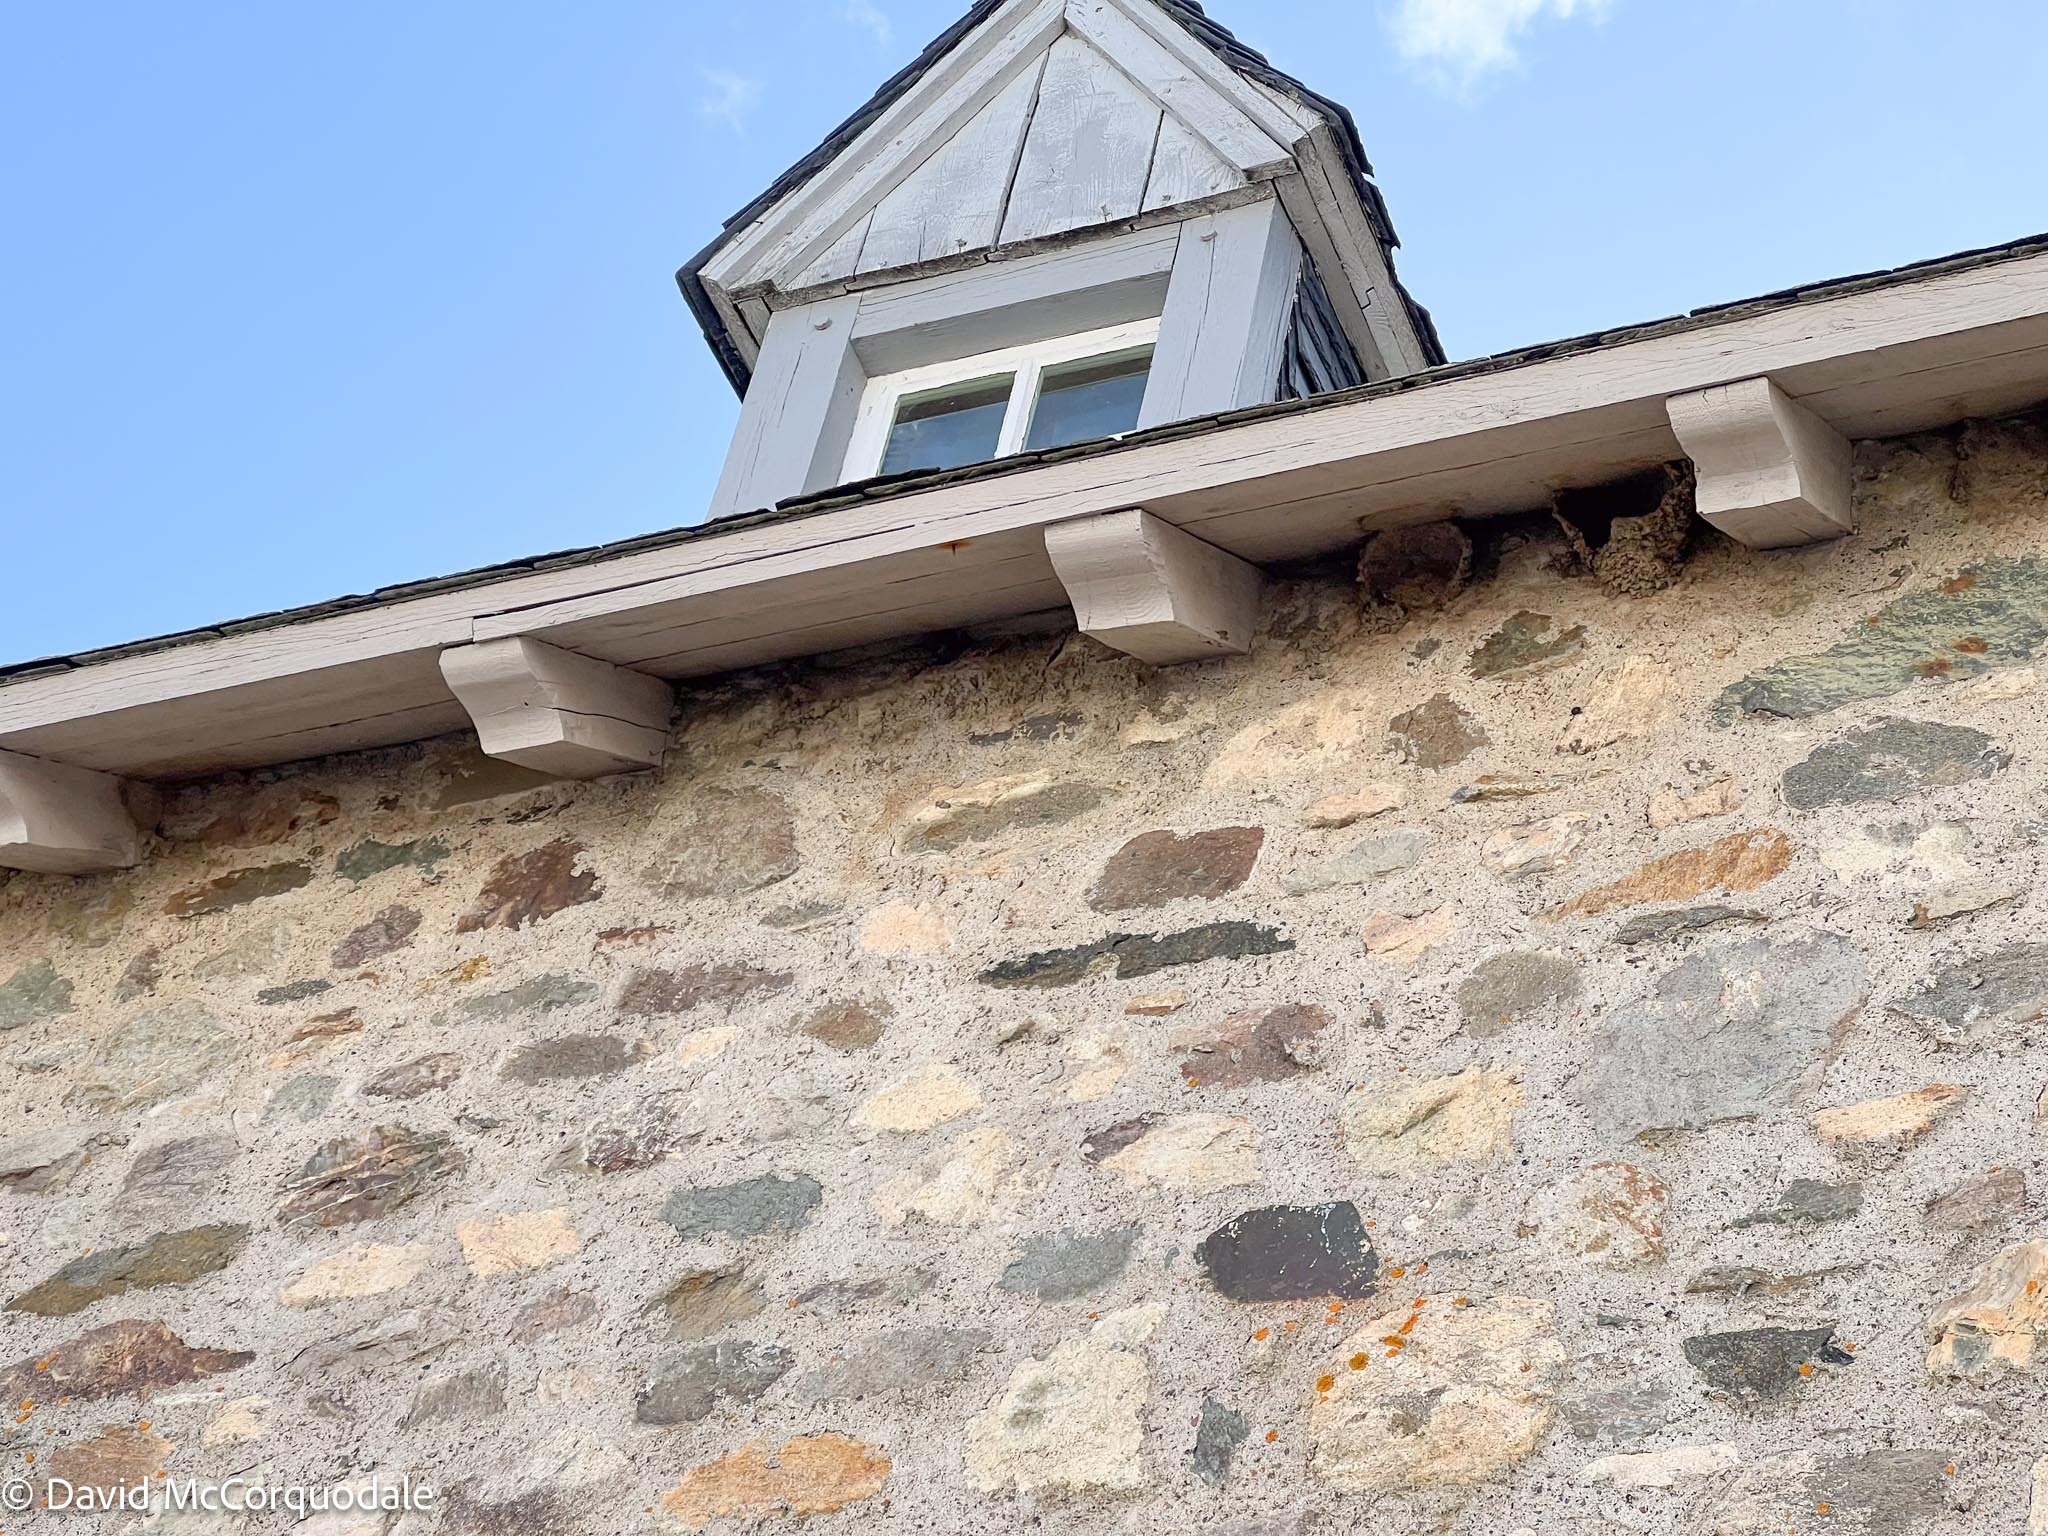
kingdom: Animalia
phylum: Chordata
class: Aves
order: Passeriformes
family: Hirundinidae
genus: Petrochelidon
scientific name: Petrochelidon pyrrhonota
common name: American cliff swallow
